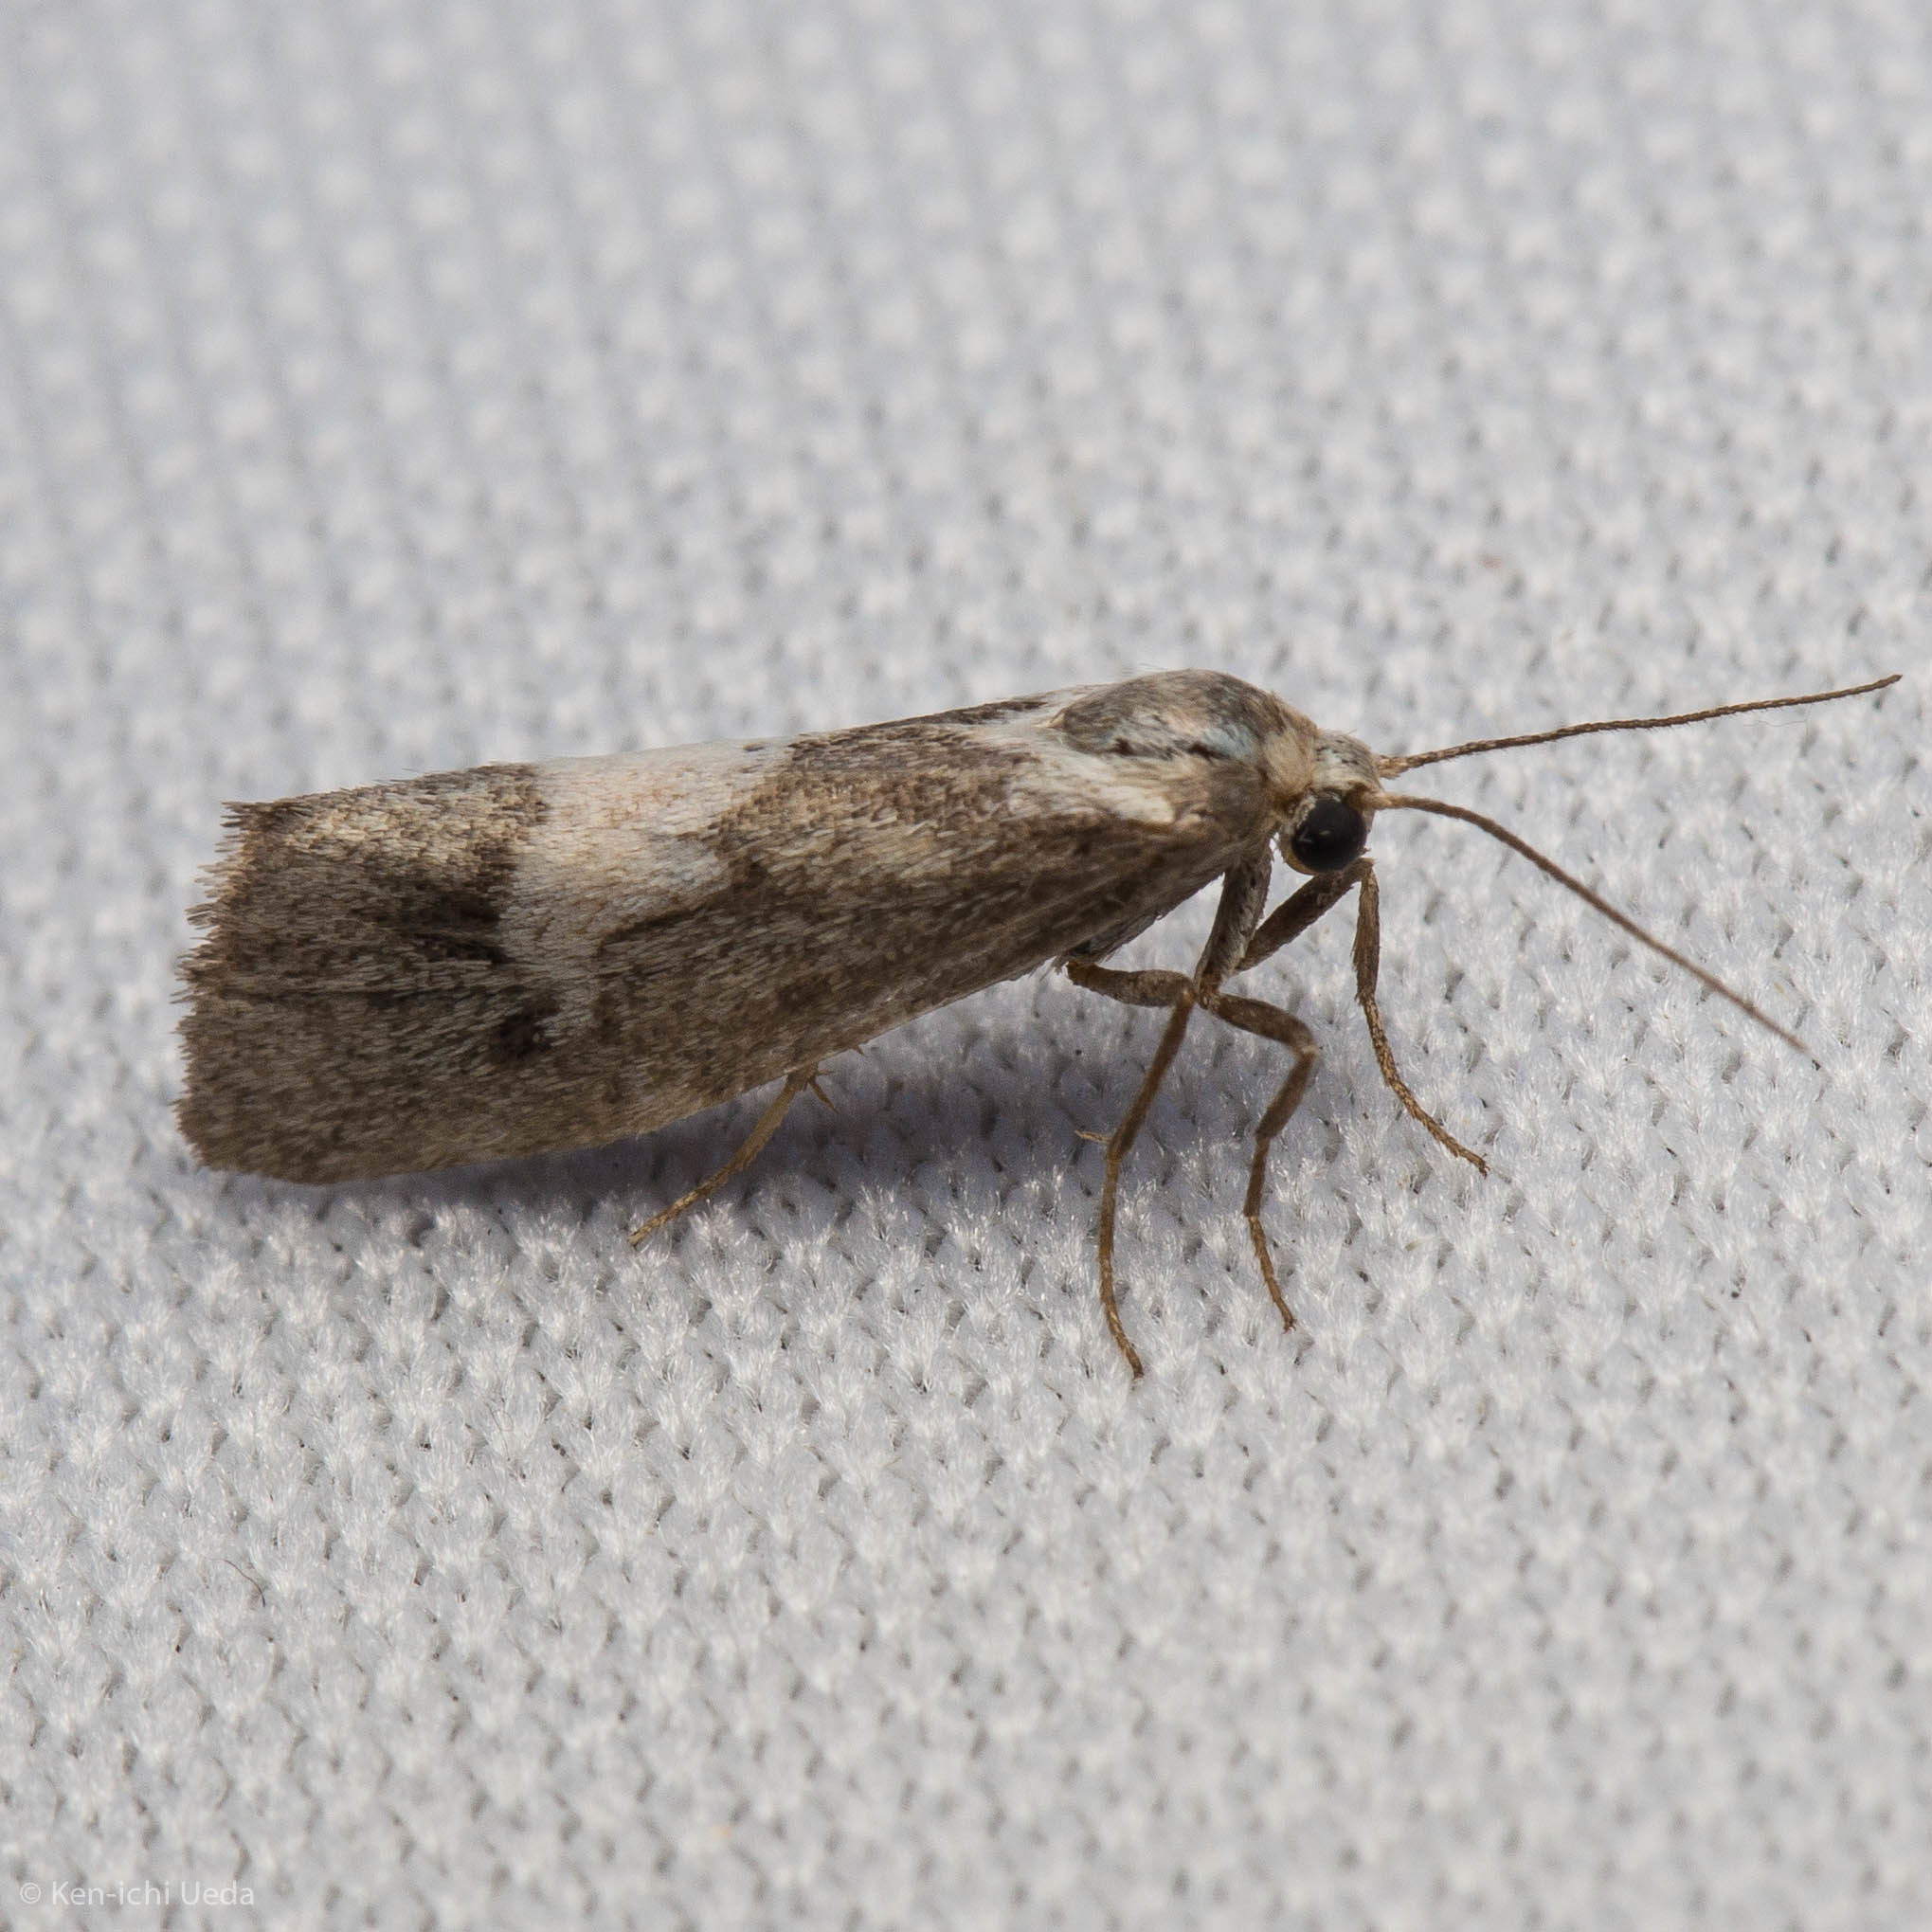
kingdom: Animalia
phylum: Arthropoda
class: Insecta
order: Lepidoptera
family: Erebidae
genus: Cisthene
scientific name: Cisthene deserta
